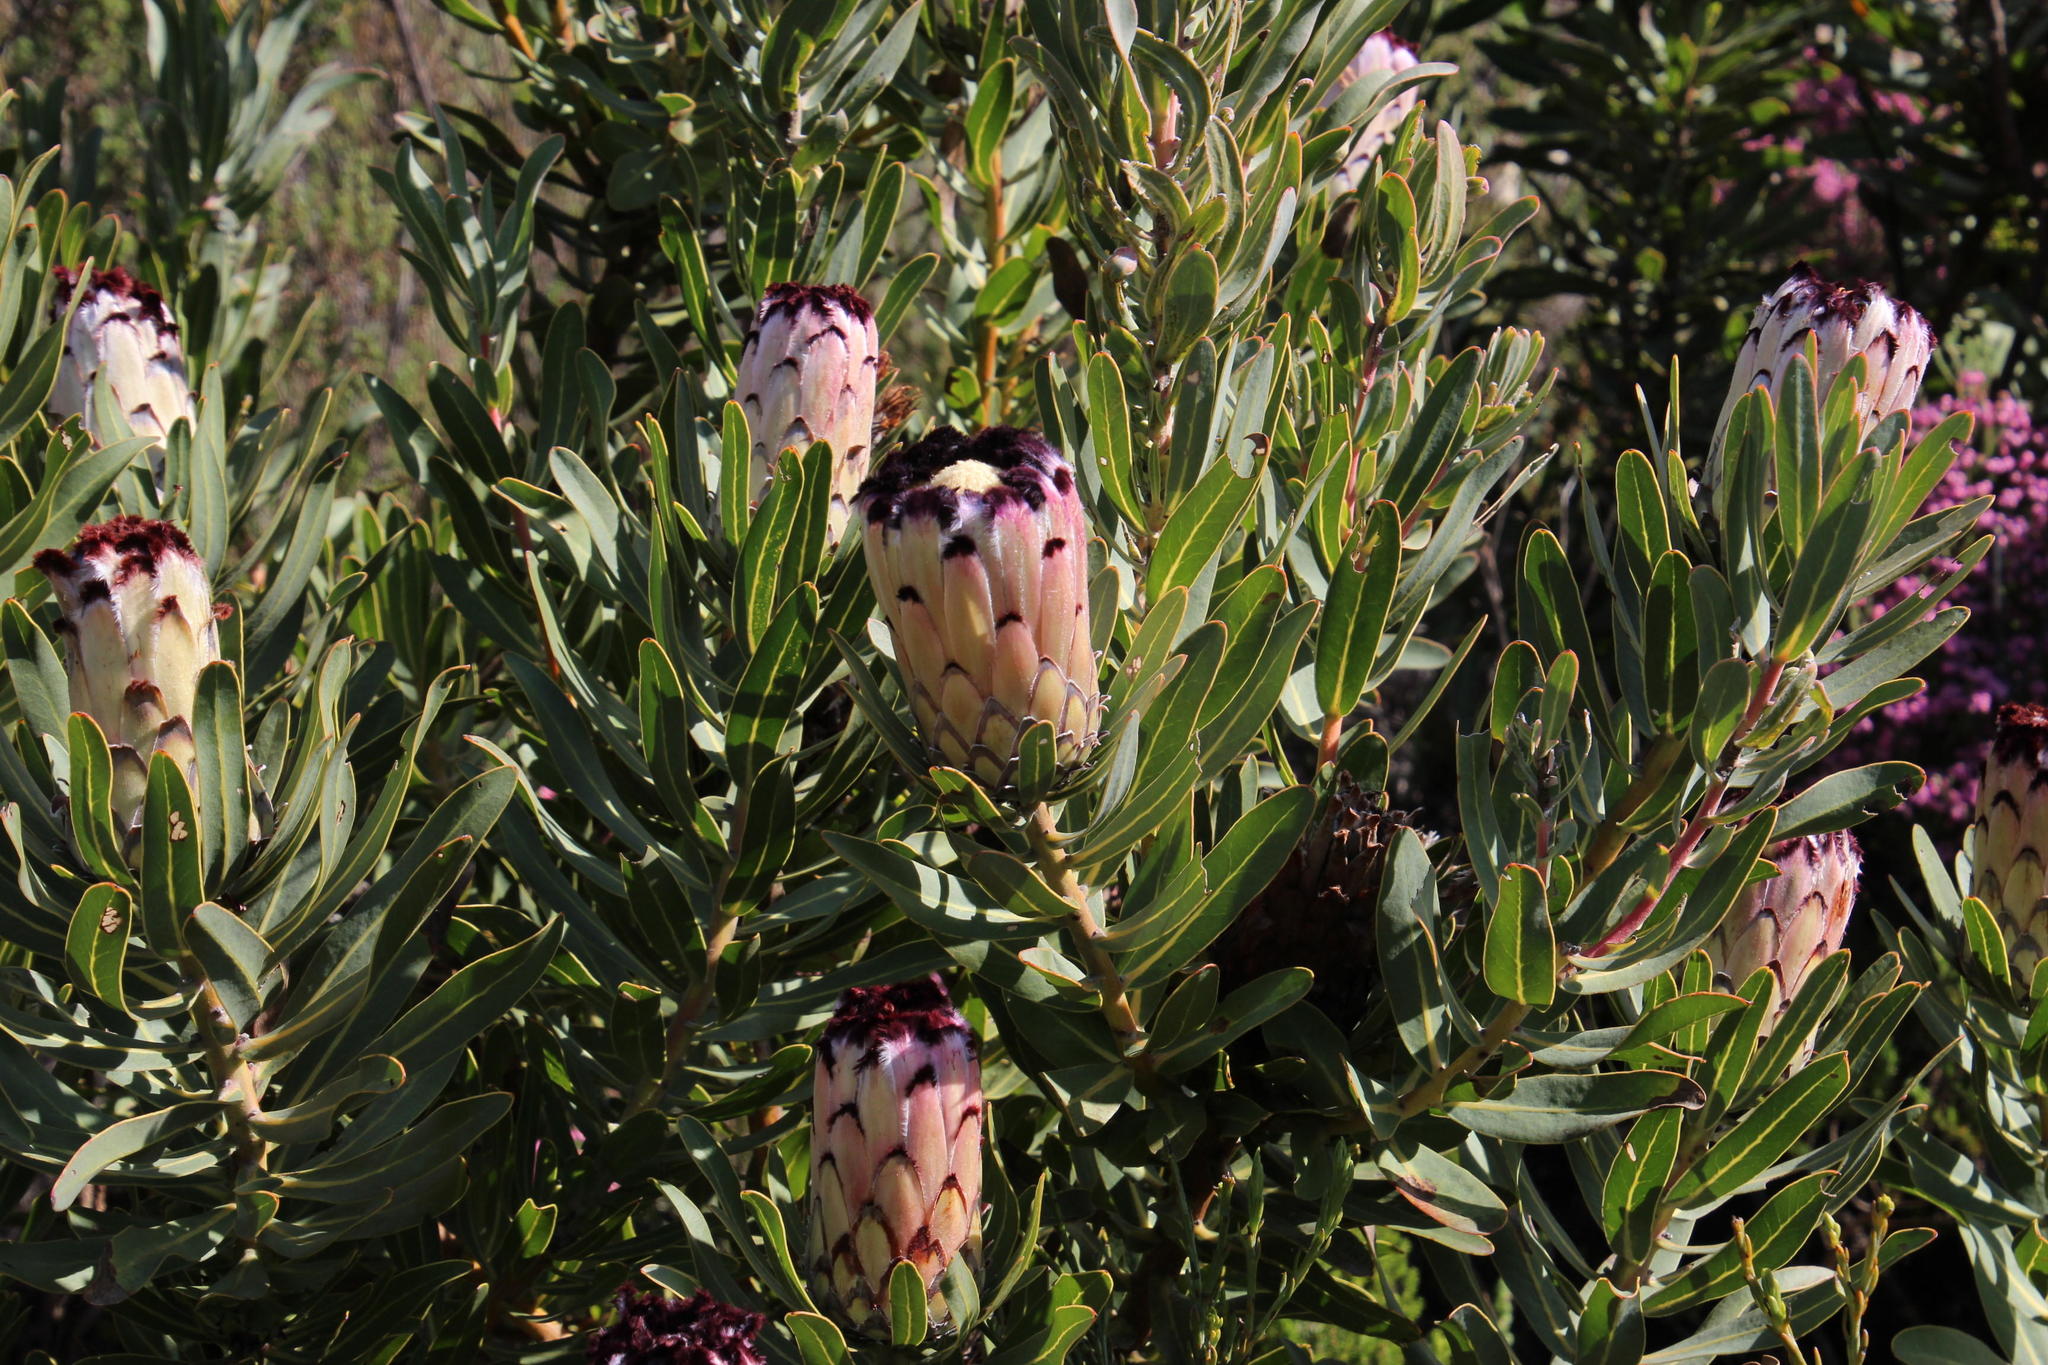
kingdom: Plantae
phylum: Tracheophyta
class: Magnoliopsida
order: Proteales
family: Proteaceae
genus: Protea
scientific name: Protea neriifolia
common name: Blue sugarbush
